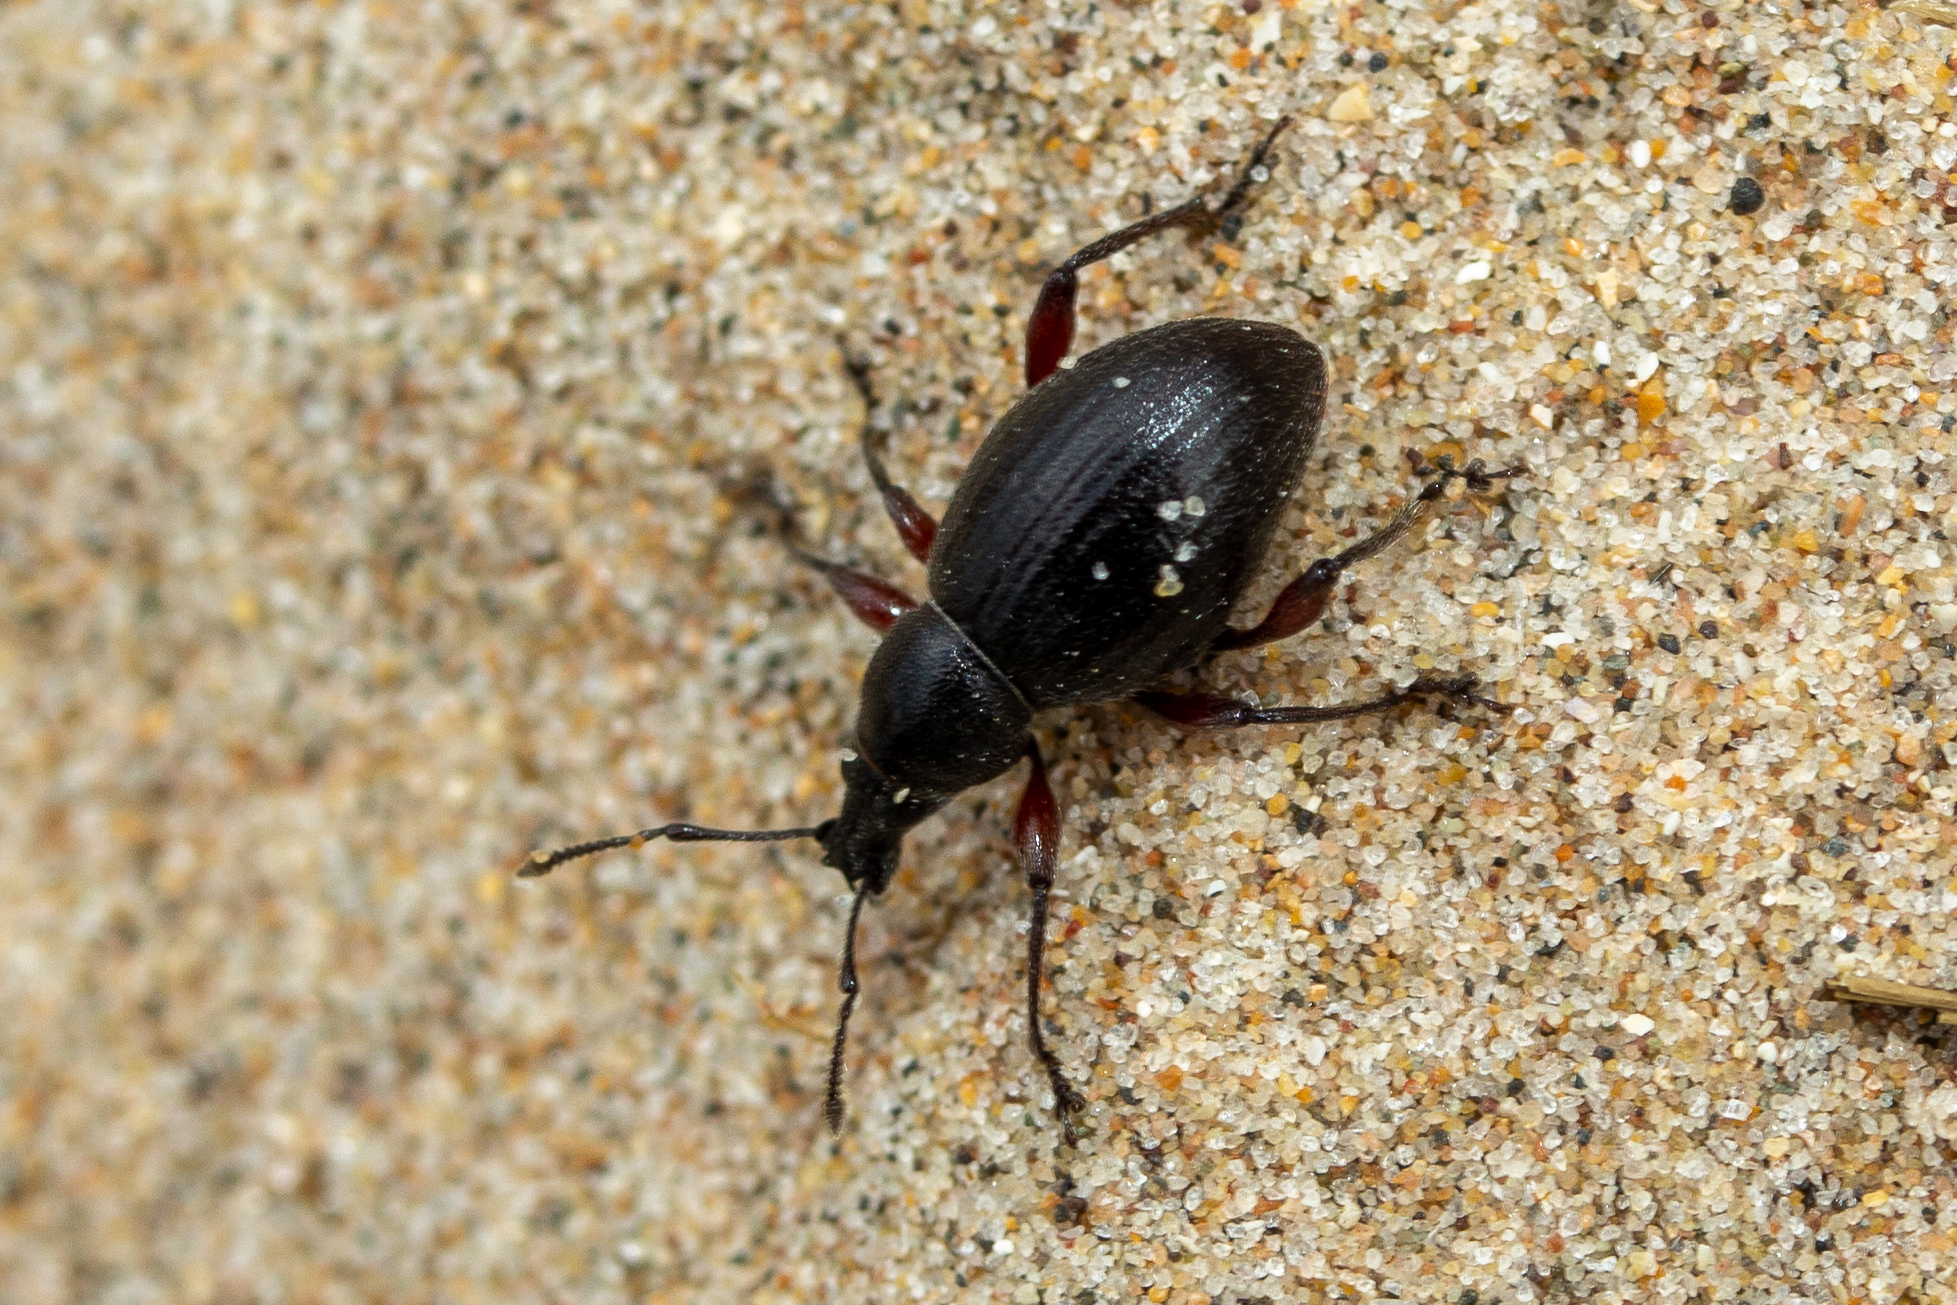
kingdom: Animalia
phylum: Arthropoda
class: Insecta
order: Coleoptera
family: Curculionidae
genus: Otiorhynchus
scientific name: Otiorhynchus atroapterus
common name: Black marram weevil
